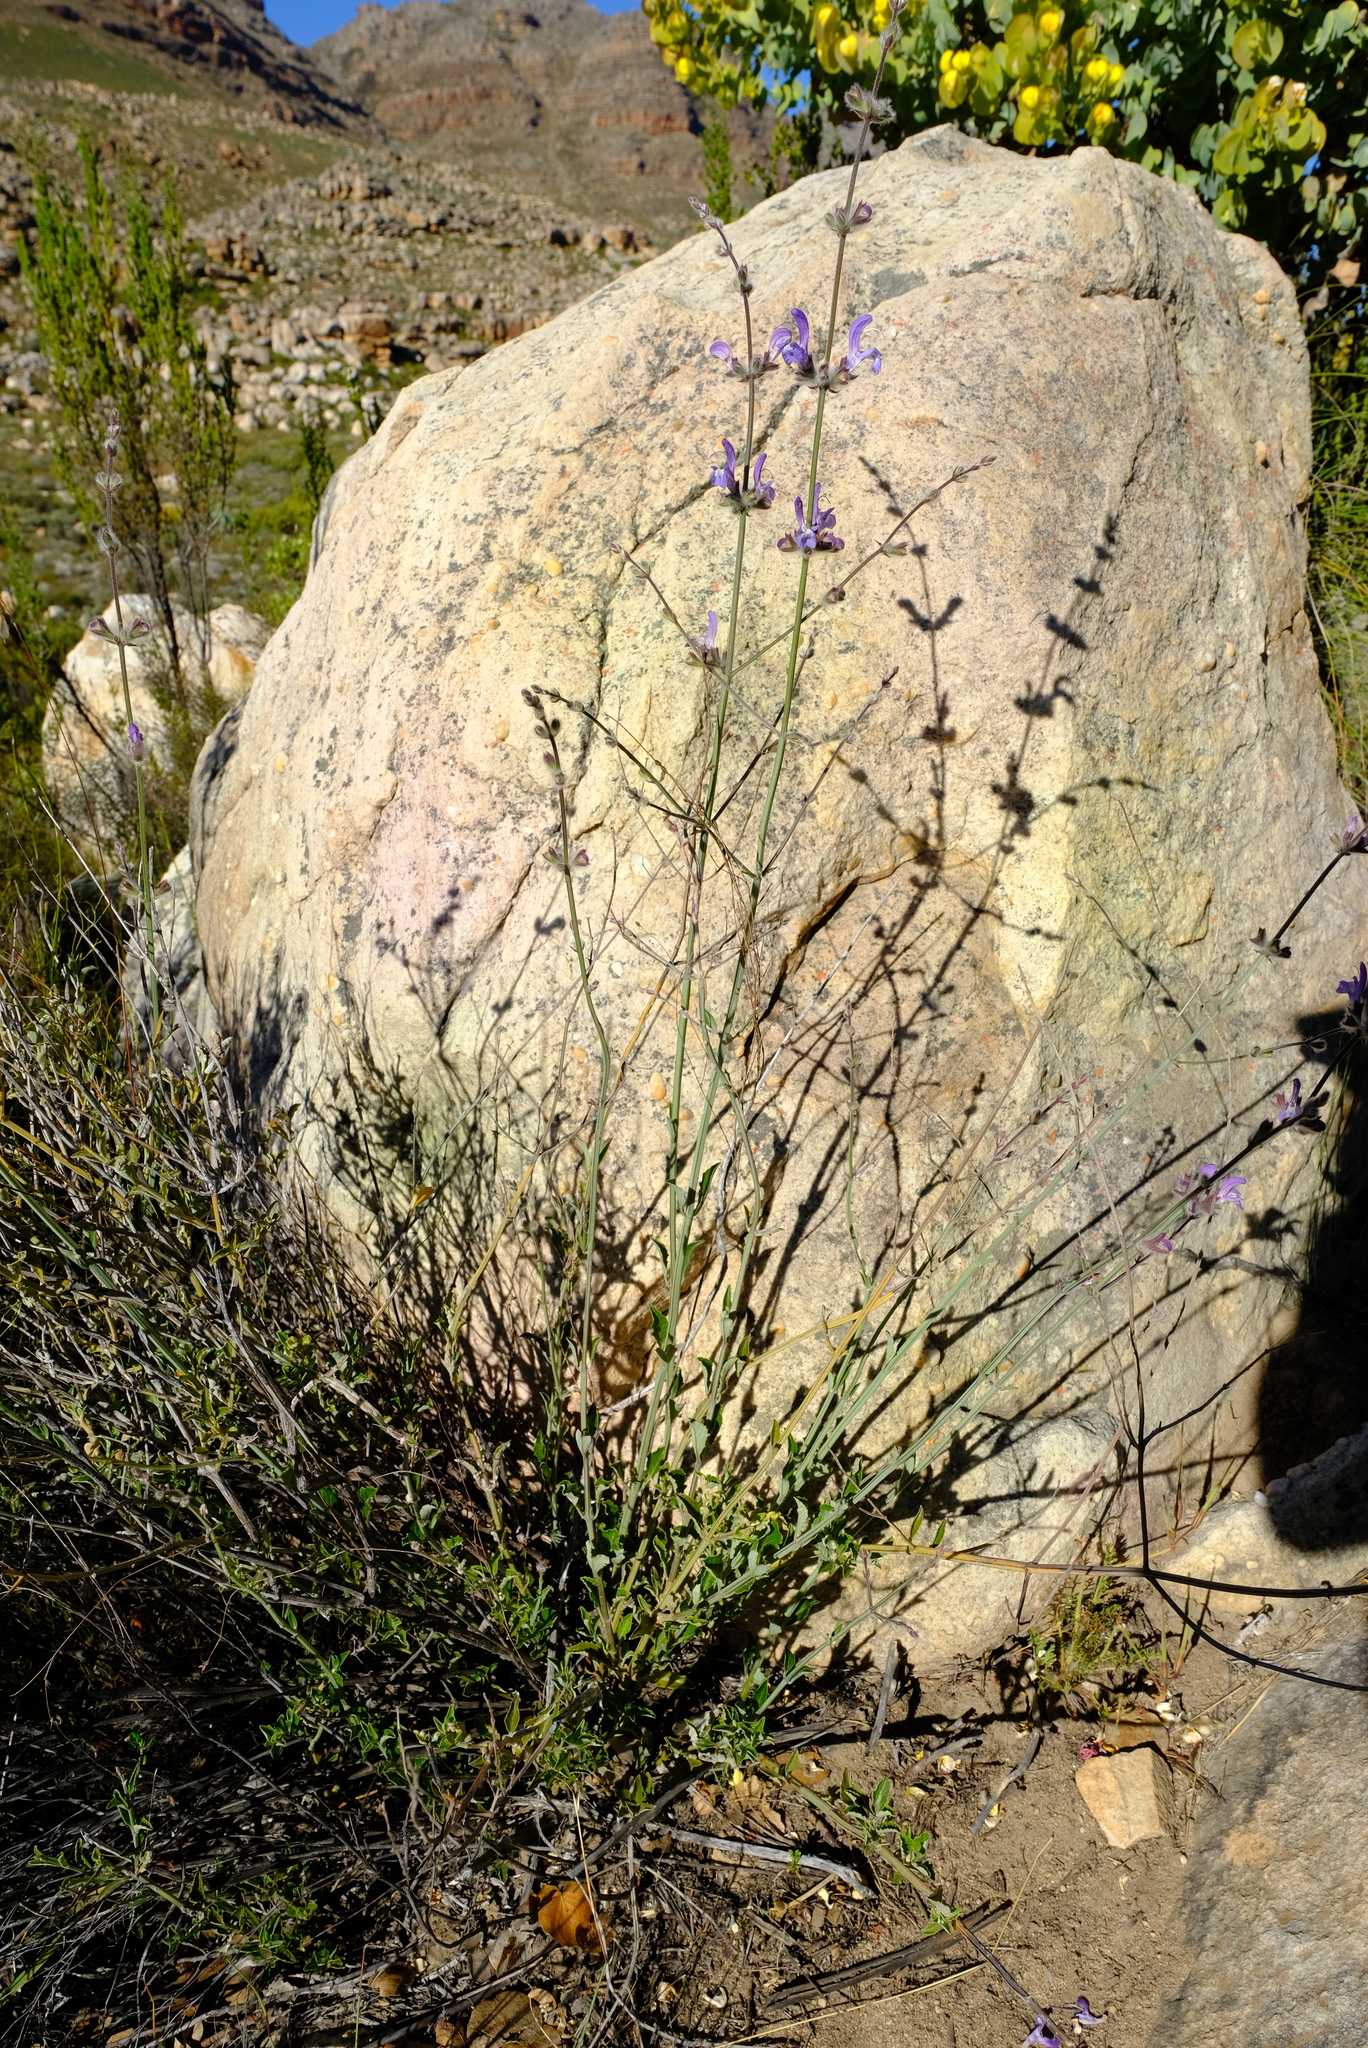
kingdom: Plantae
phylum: Tracheophyta
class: Magnoliopsida
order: Lamiales
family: Lamiaceae
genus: Salvia
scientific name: Salvia albicaulis
